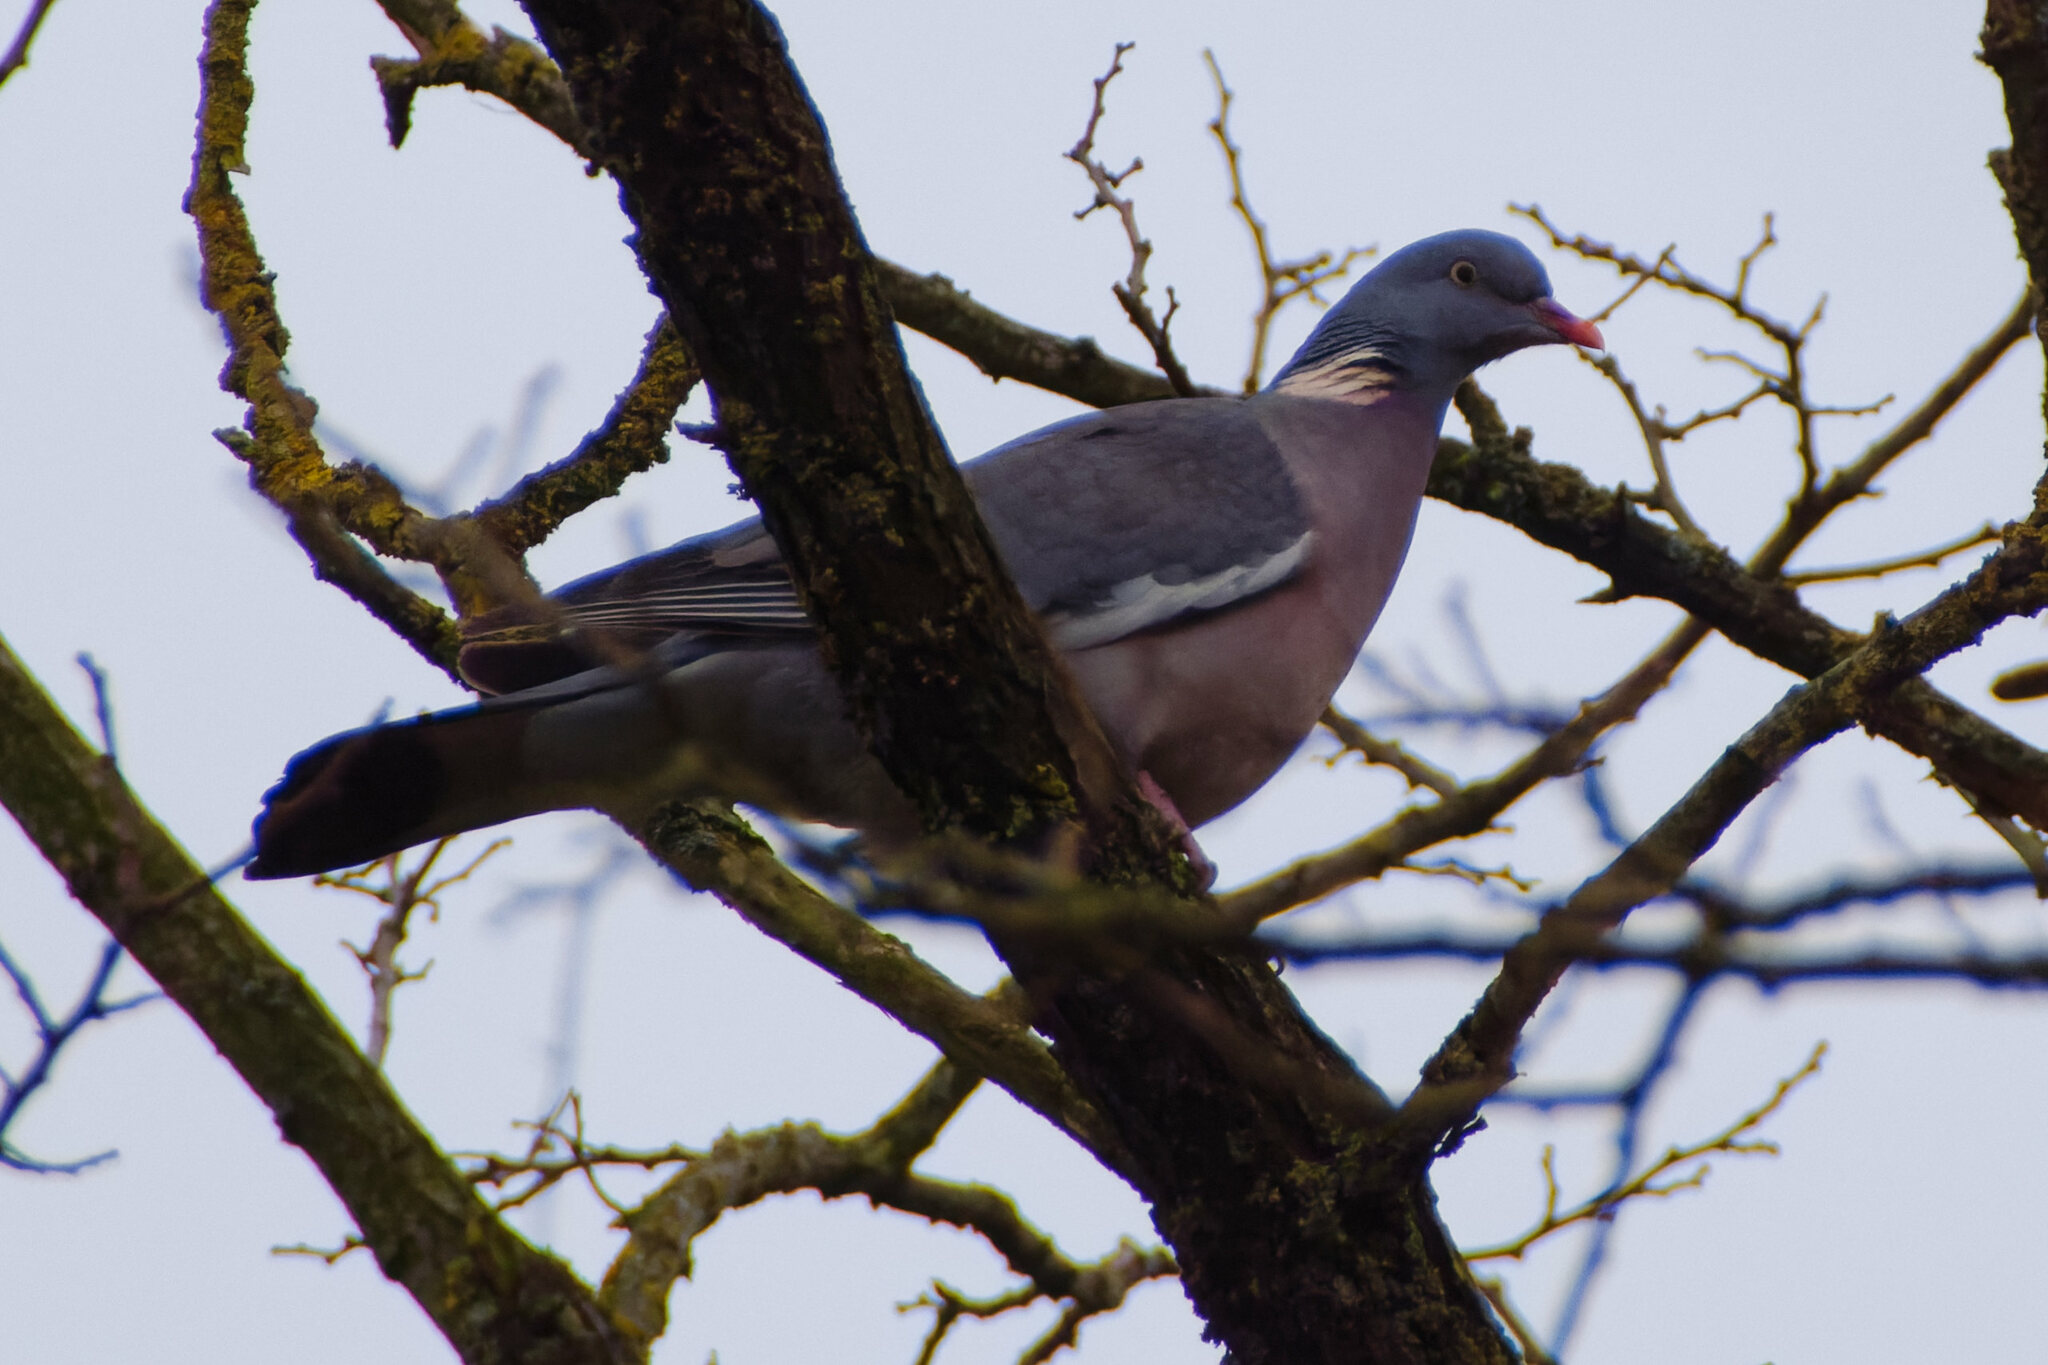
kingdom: Animalia
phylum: Chordata
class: Aves
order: Columbiformes
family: Columbidae
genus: Columba
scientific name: Columba palumbus
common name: Common wood pigeon
